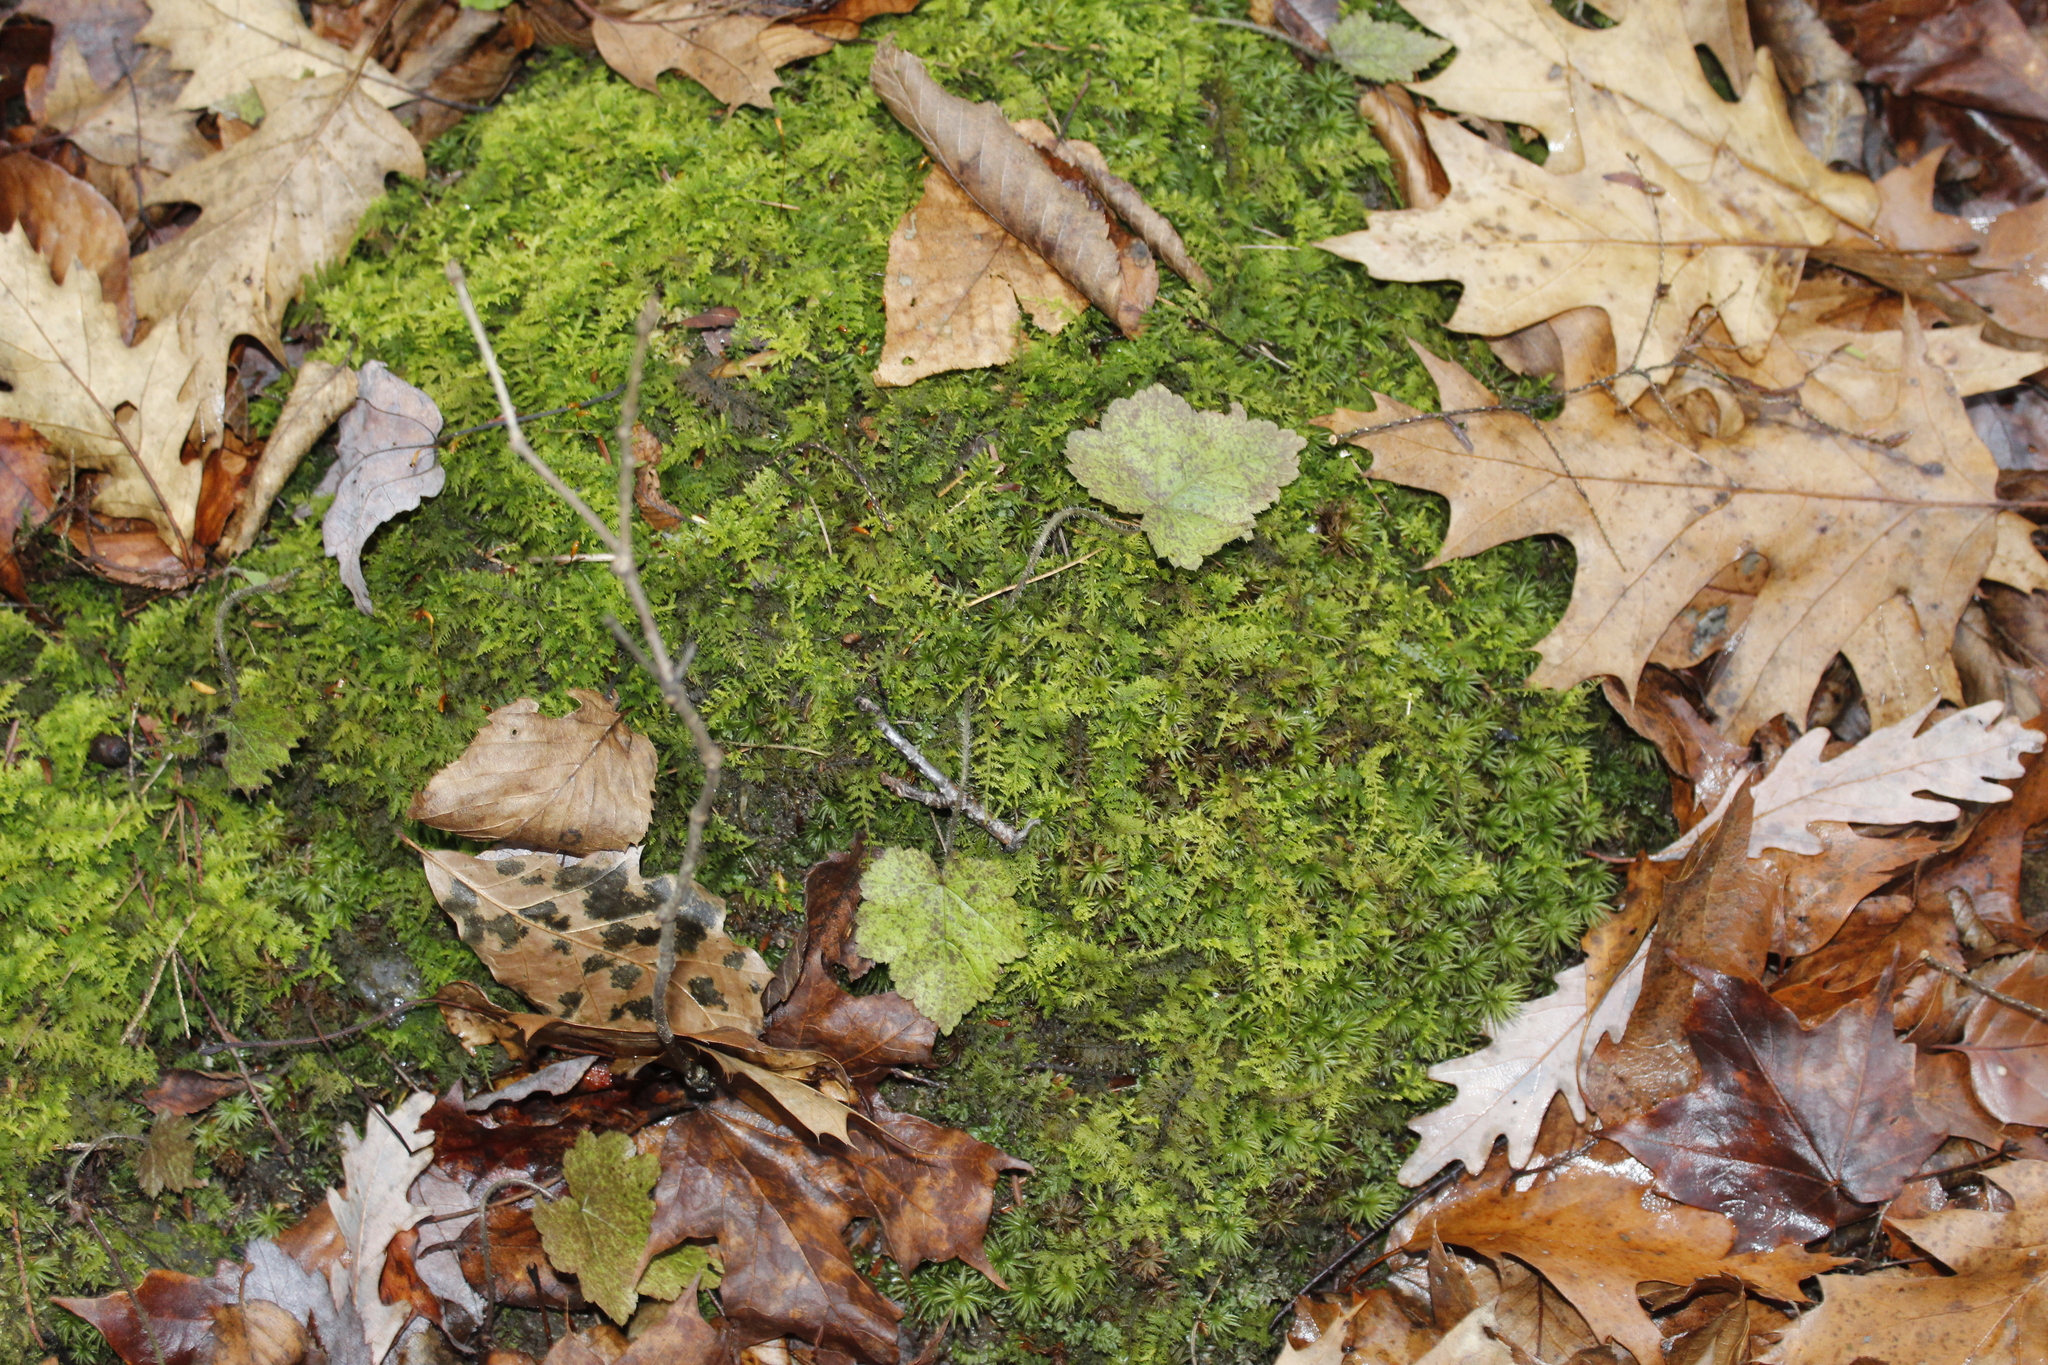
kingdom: Plantae
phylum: Tracheophyta
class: Magnoliopsida
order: Saxifragales
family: Saxifragaceae
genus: Tiarella
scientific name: Tiarella stolonifera
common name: Stoloniferous foamflower
